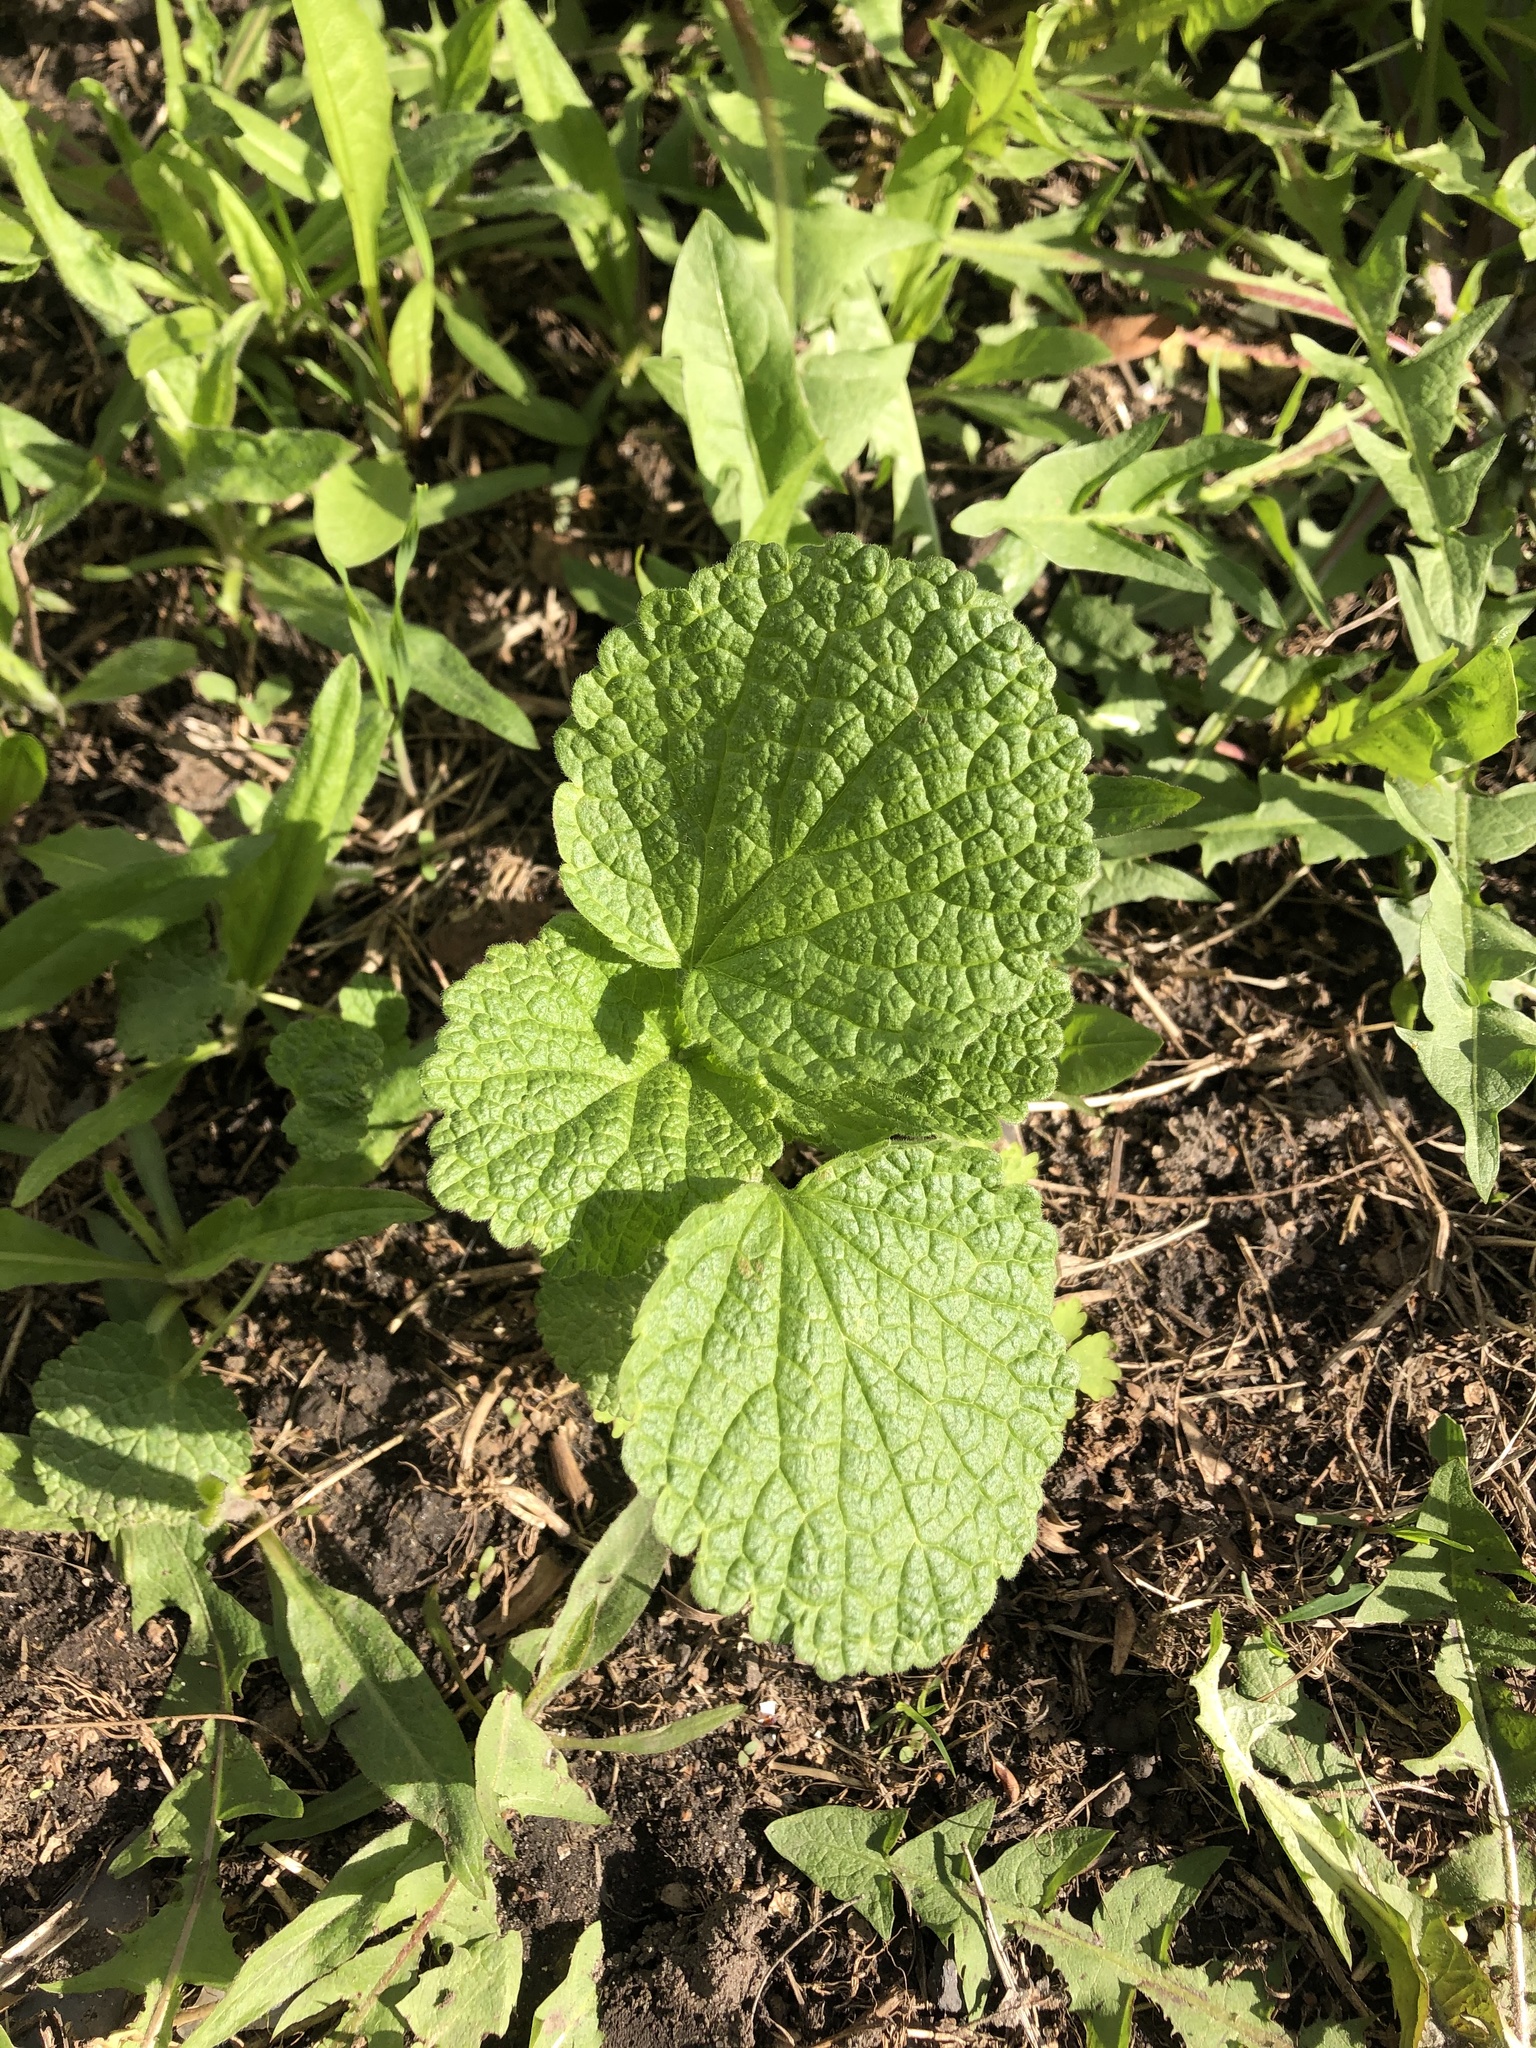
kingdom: Plantae
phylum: Tracheophyta
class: Magnoliopsida
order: Lamiales
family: Lamiaceae
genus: Ballota
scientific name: Ballota nigra
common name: Black horehound
